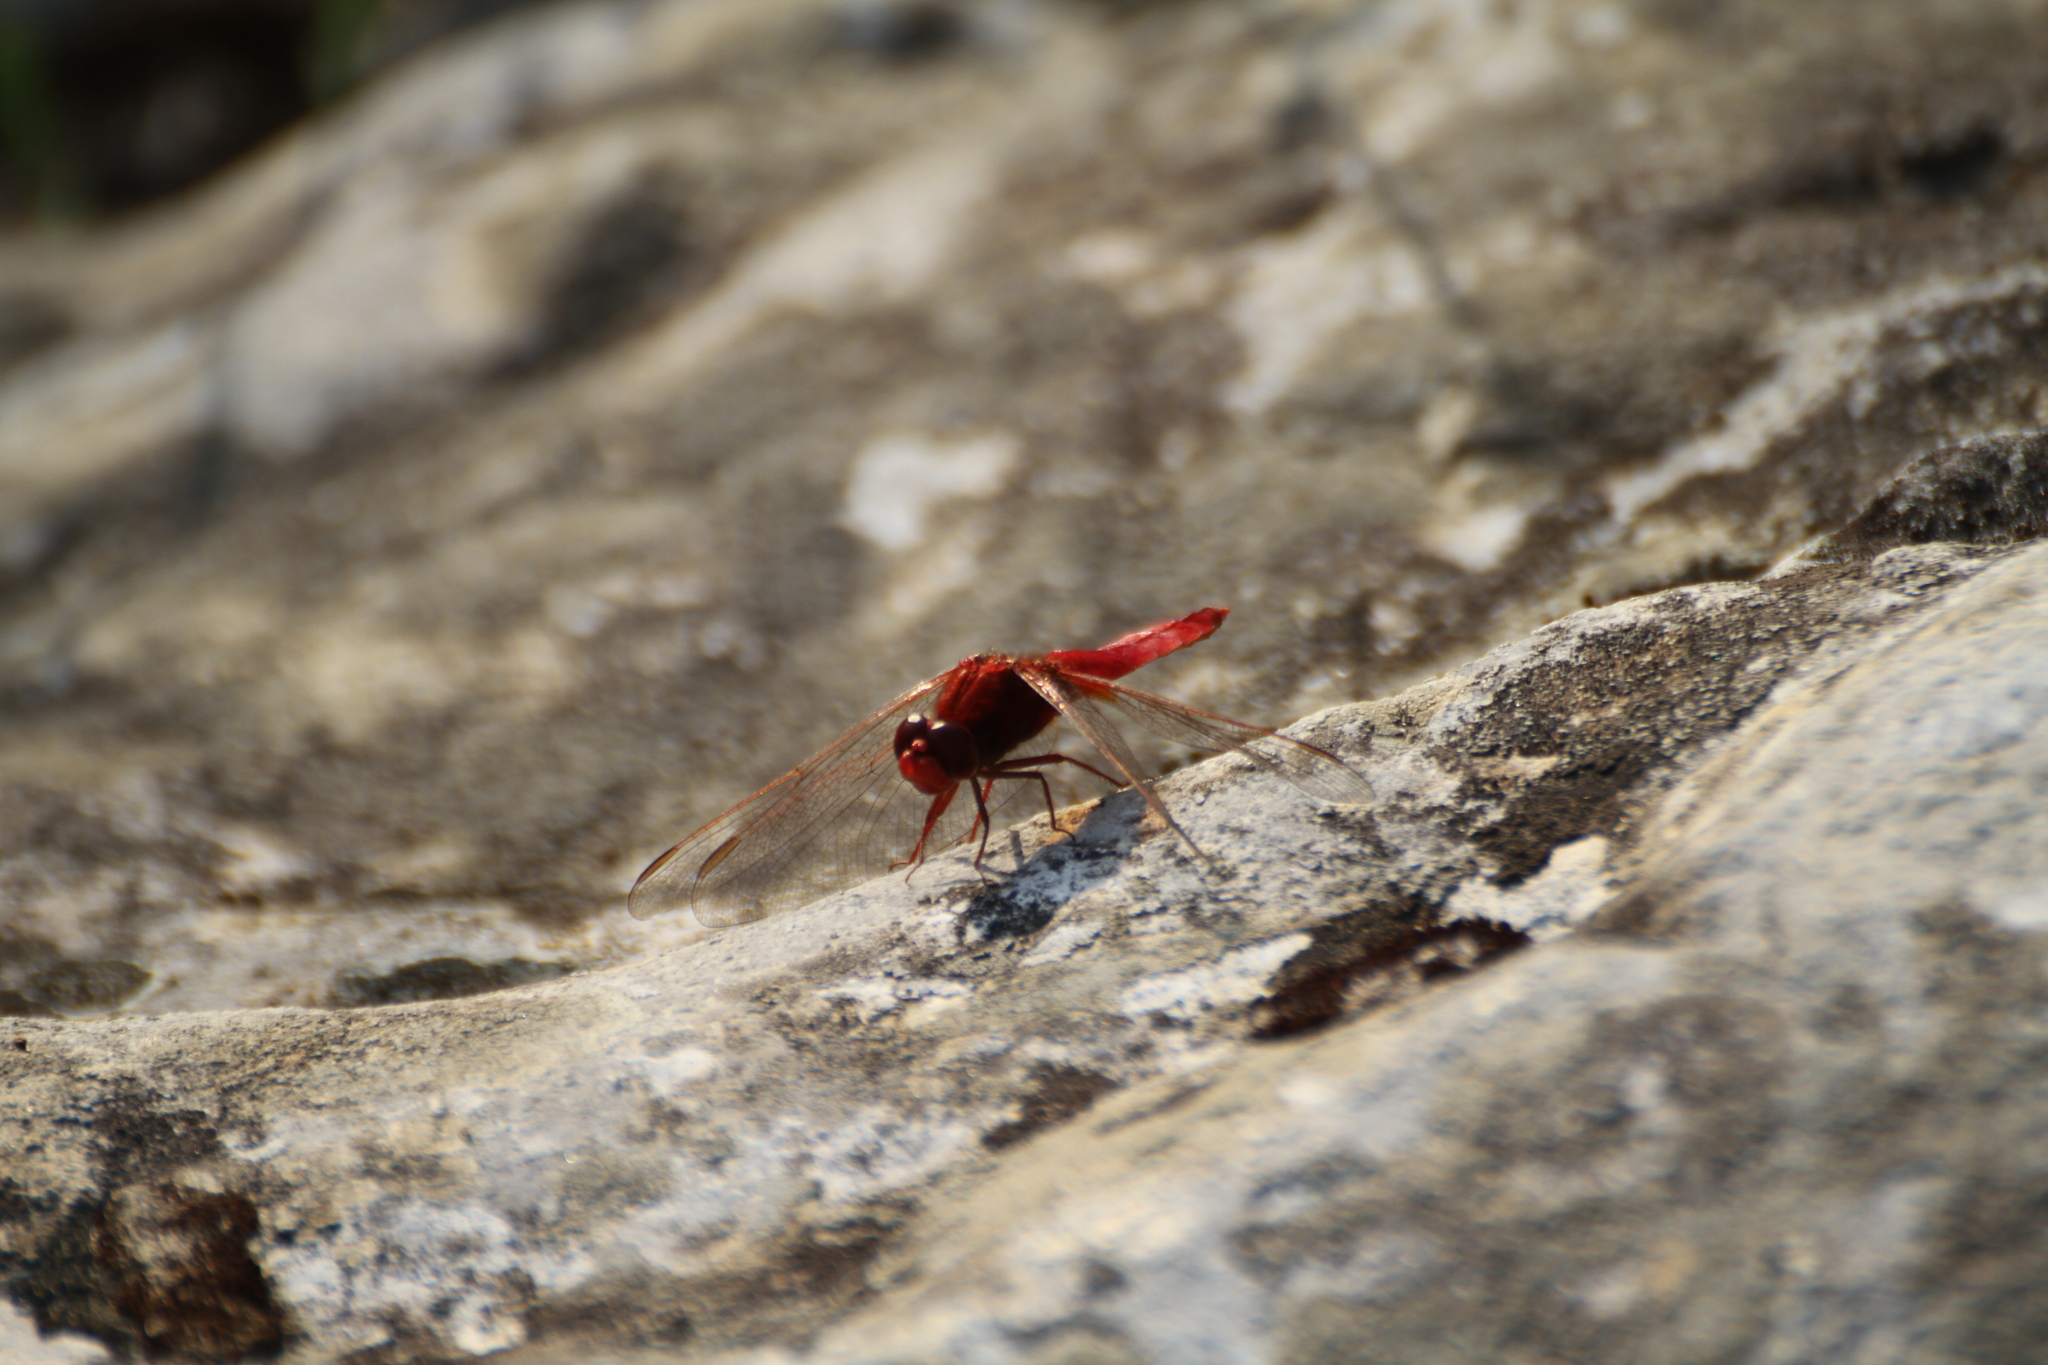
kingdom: Animalia
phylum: Arthropoda
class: Insecta
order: Odonata
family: Libellulidae
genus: Crocothemis
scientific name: Crocothemis erythraea
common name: Scarlet dragonfly
